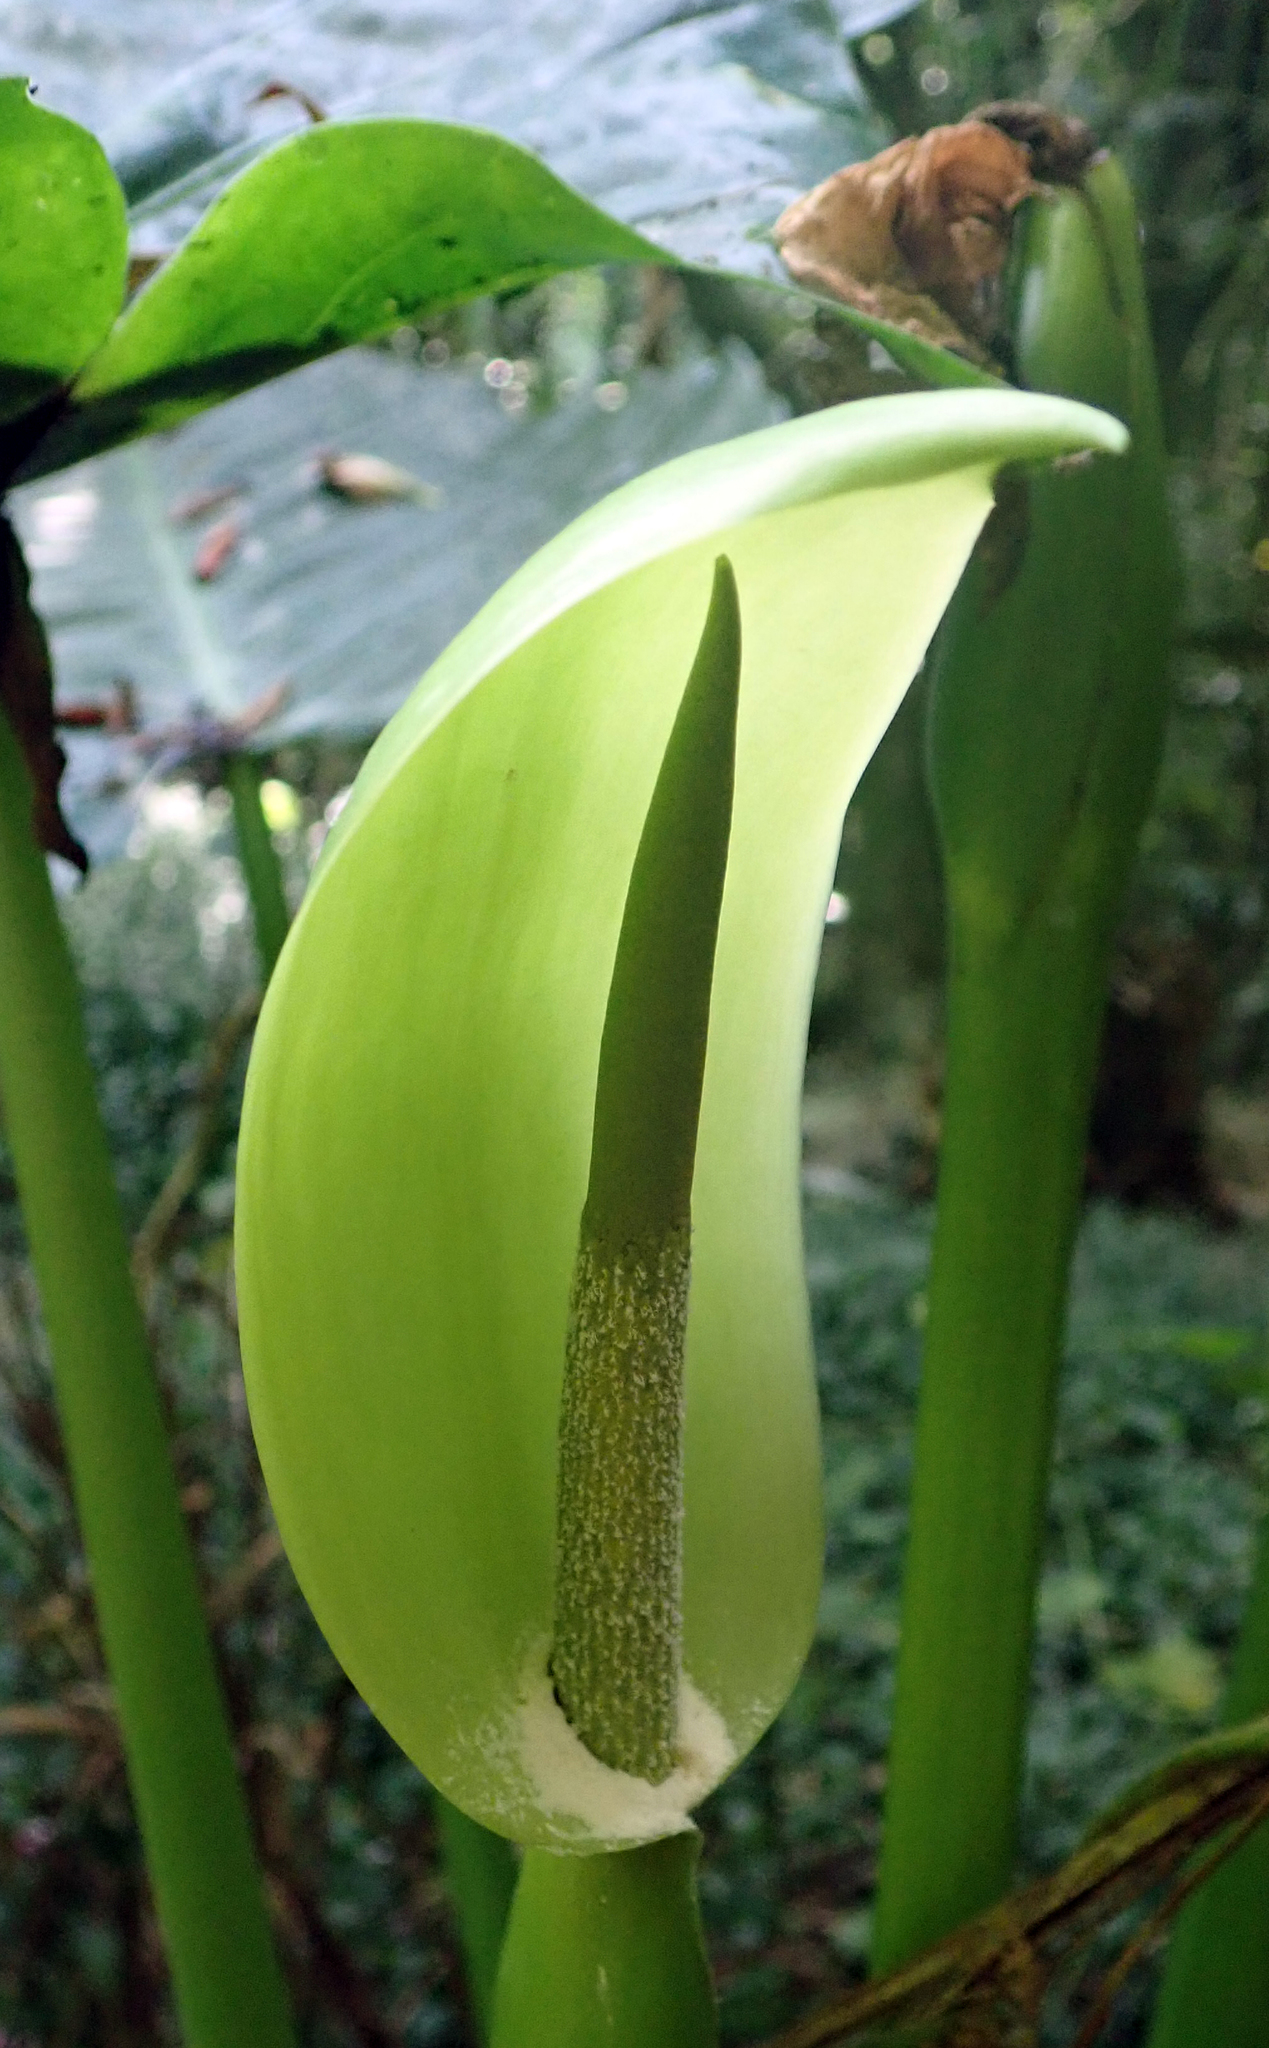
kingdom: Plantae
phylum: Tracheophyta
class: Liliopsida
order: Alismatales
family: Araceae
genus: Alocasia
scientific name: Alocasia brisbanensis
